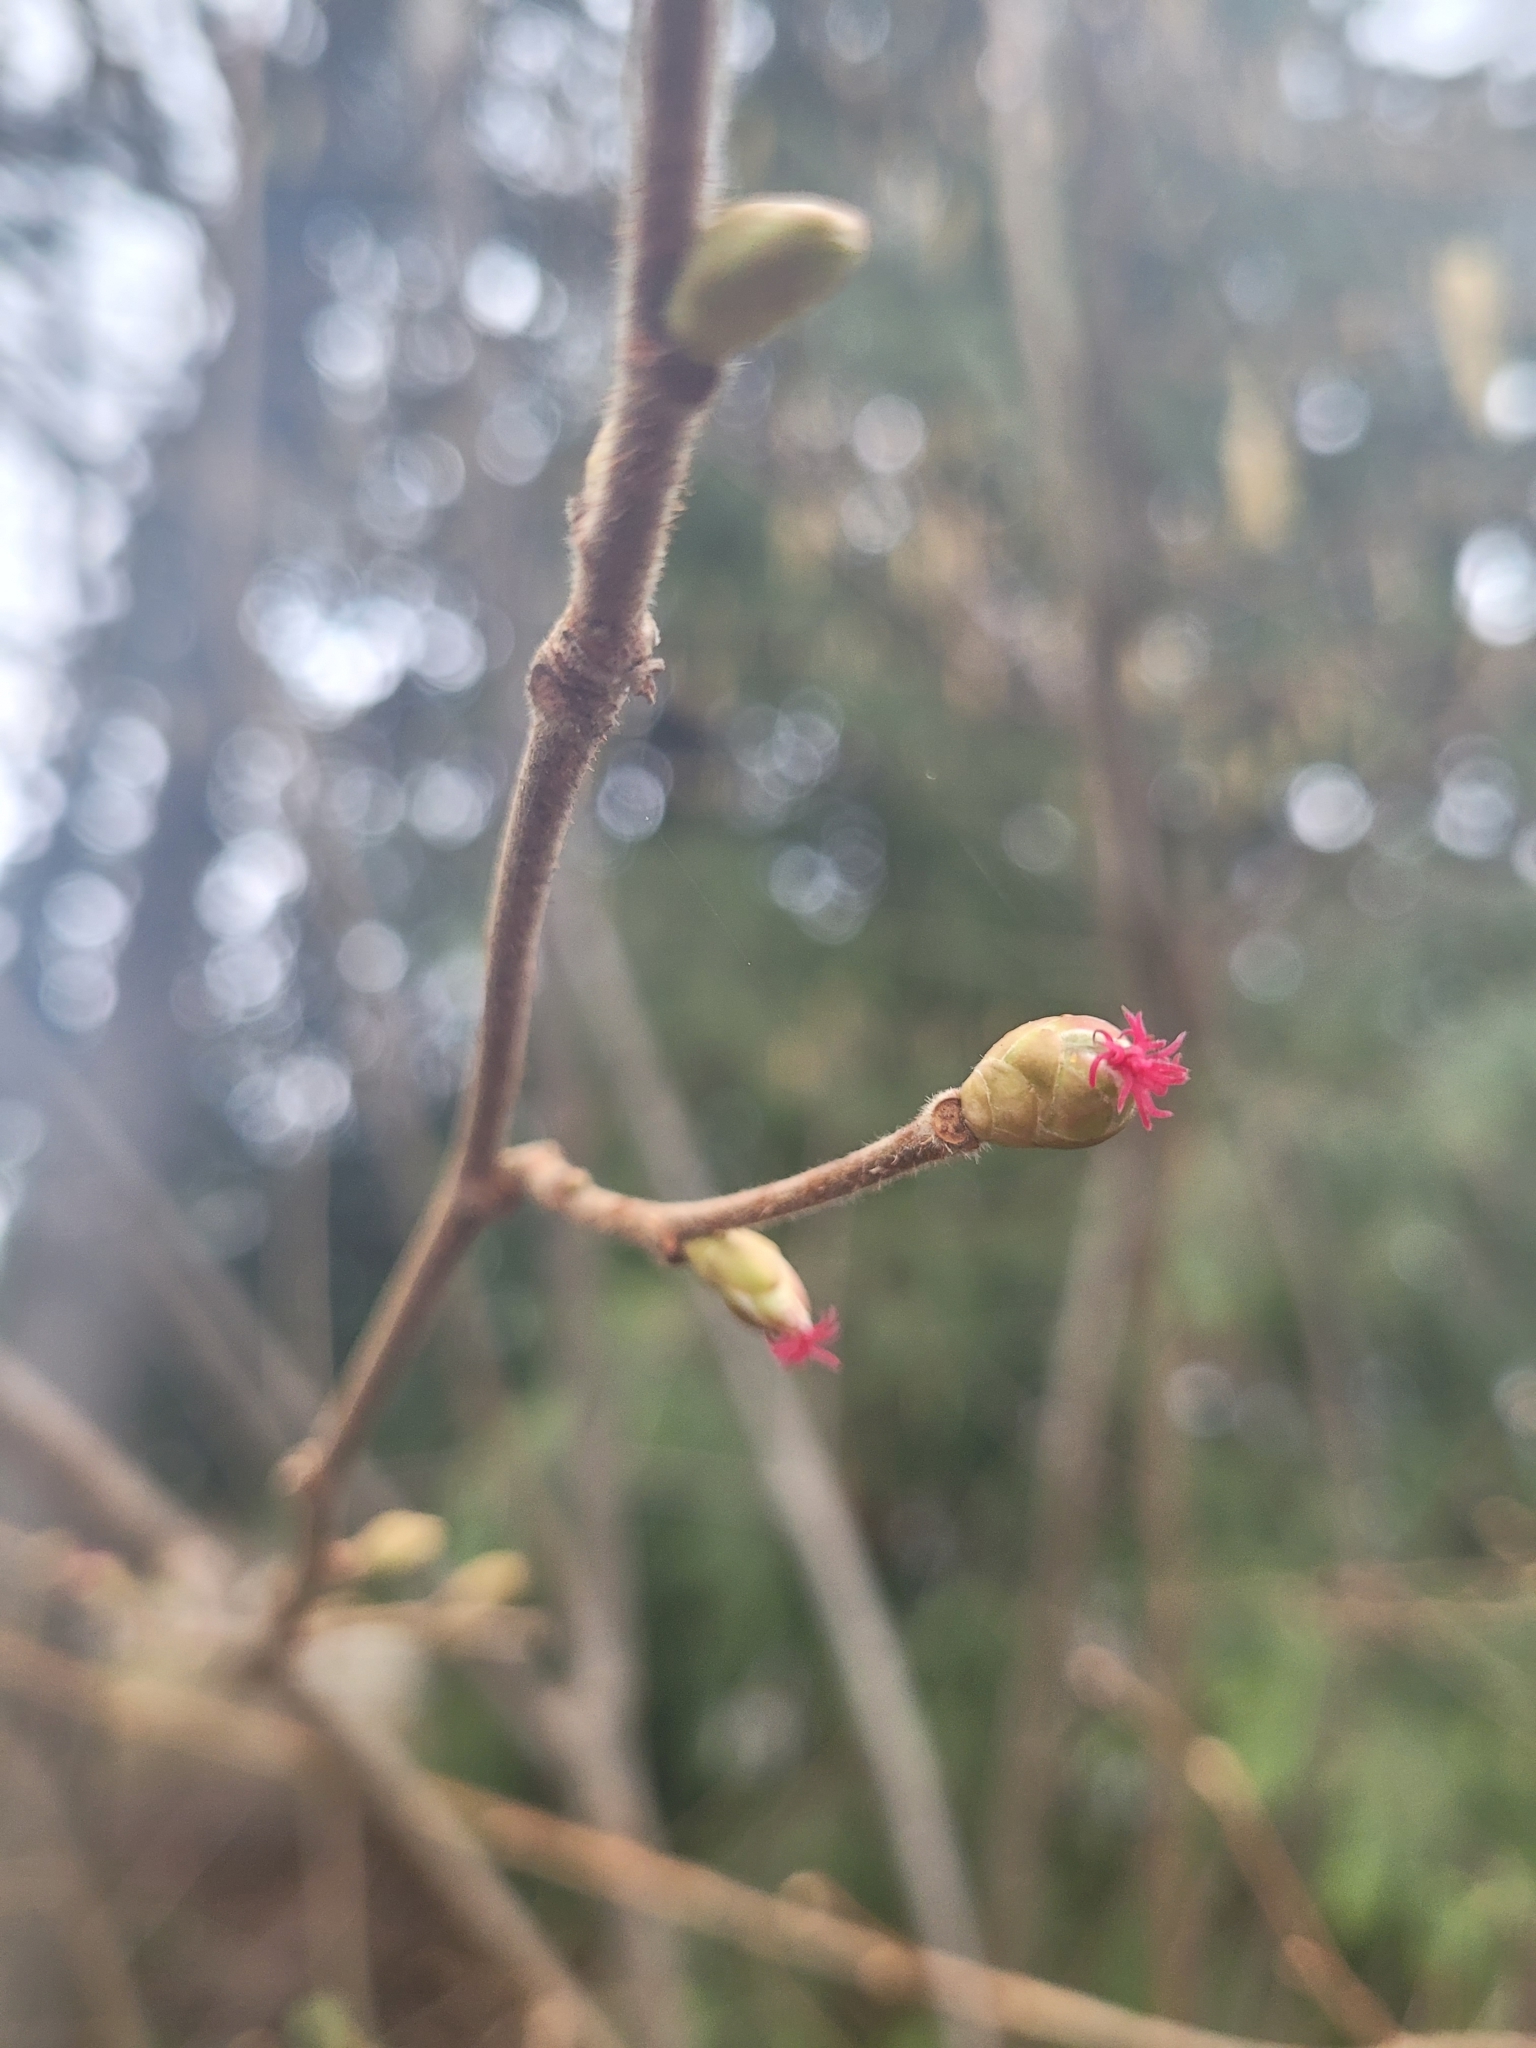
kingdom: Plantae
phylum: Tracheophyta
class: Magnoliopsida
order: Fagales
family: Betulaceae
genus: Corylus
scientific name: Corylus cornuta
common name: Beaked hazel
